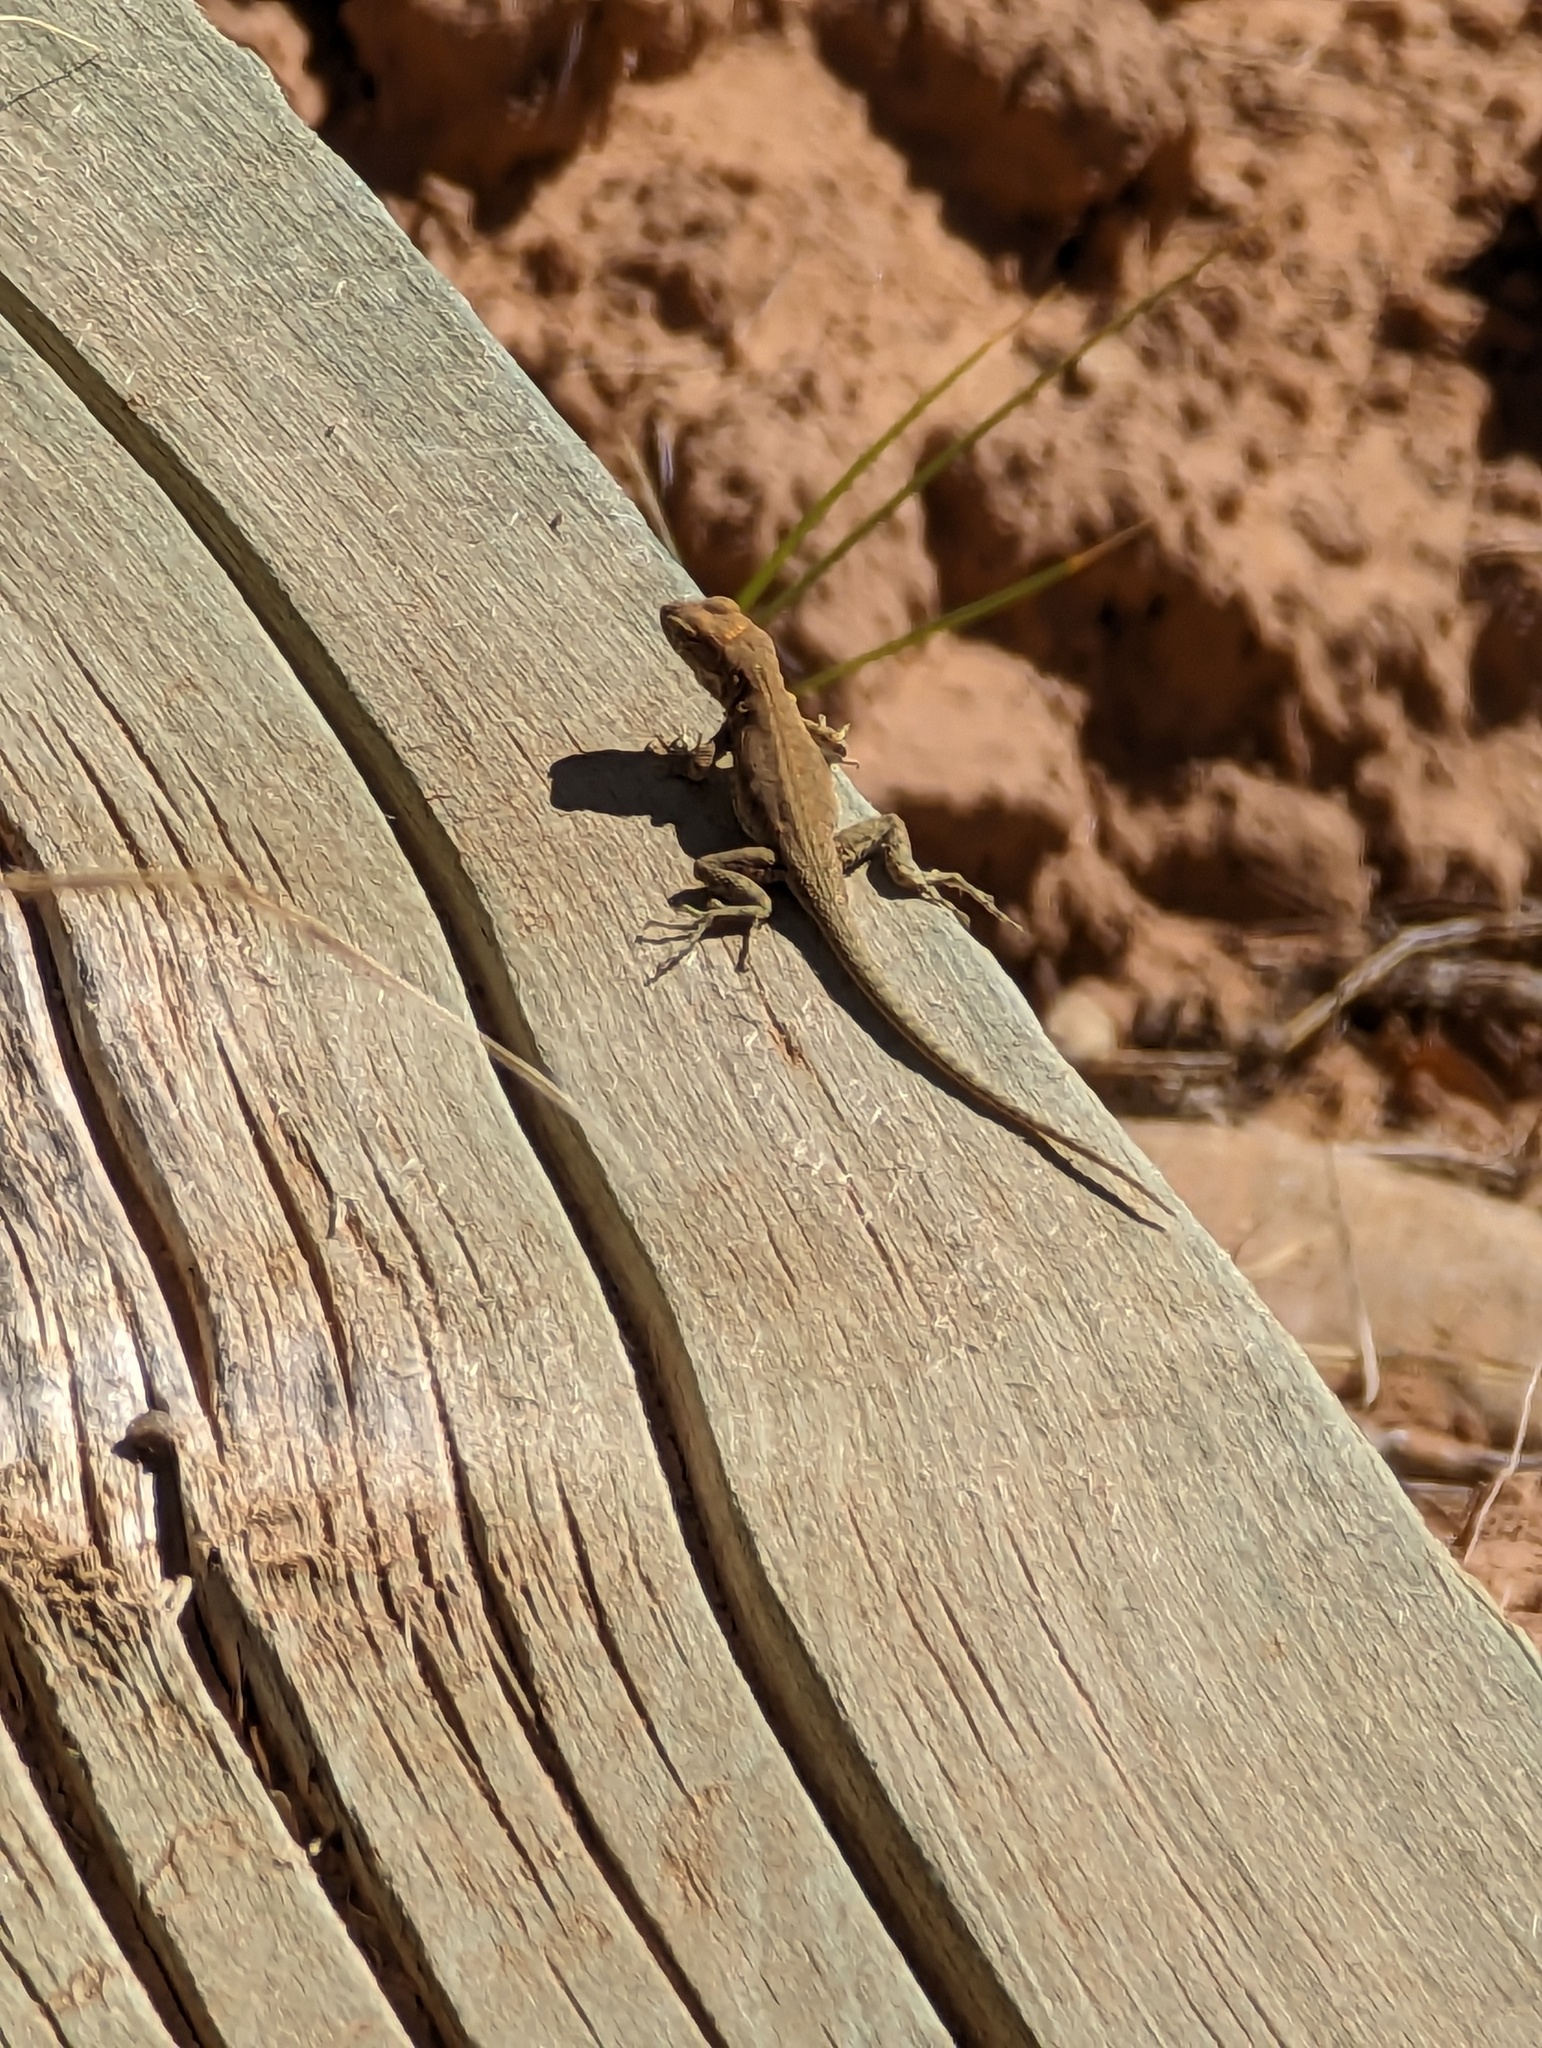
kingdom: Animalia
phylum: Chordata
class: Squamata
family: Phrynosomatidae
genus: Uta
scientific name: Uta stansburiana
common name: Side-blotched lizard
